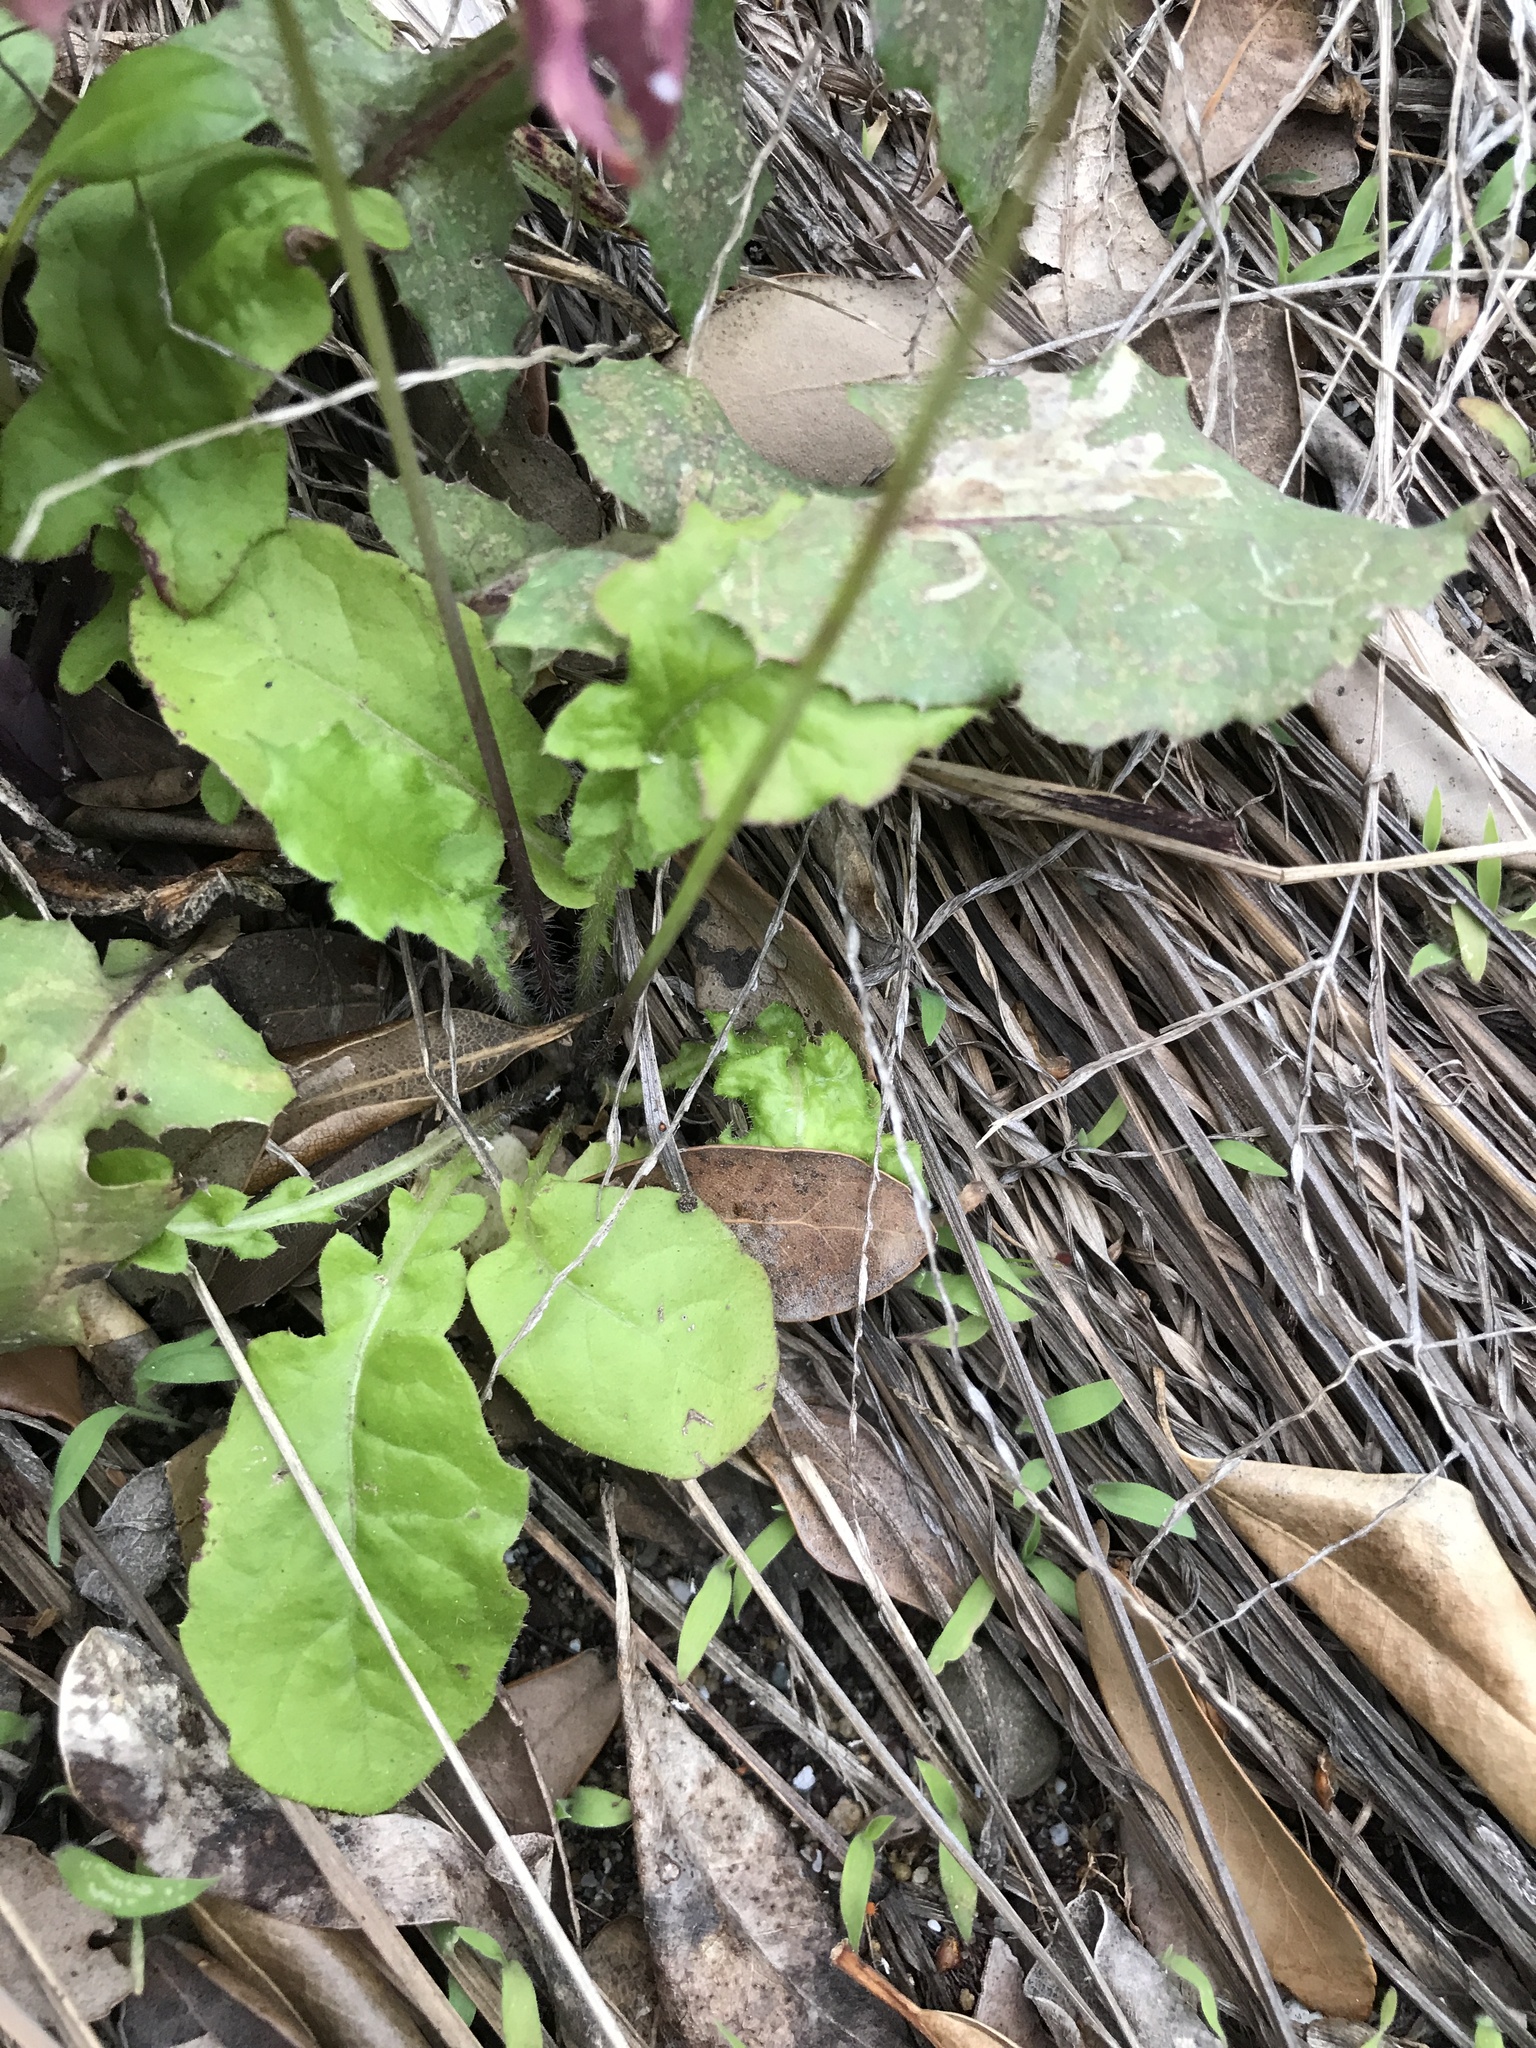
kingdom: Plantae
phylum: Tracheophyta
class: Magnoliopsida
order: Asterales
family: Asteraceae
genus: Youngia
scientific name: Youngia japonica
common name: Oriental false hawksbeard
